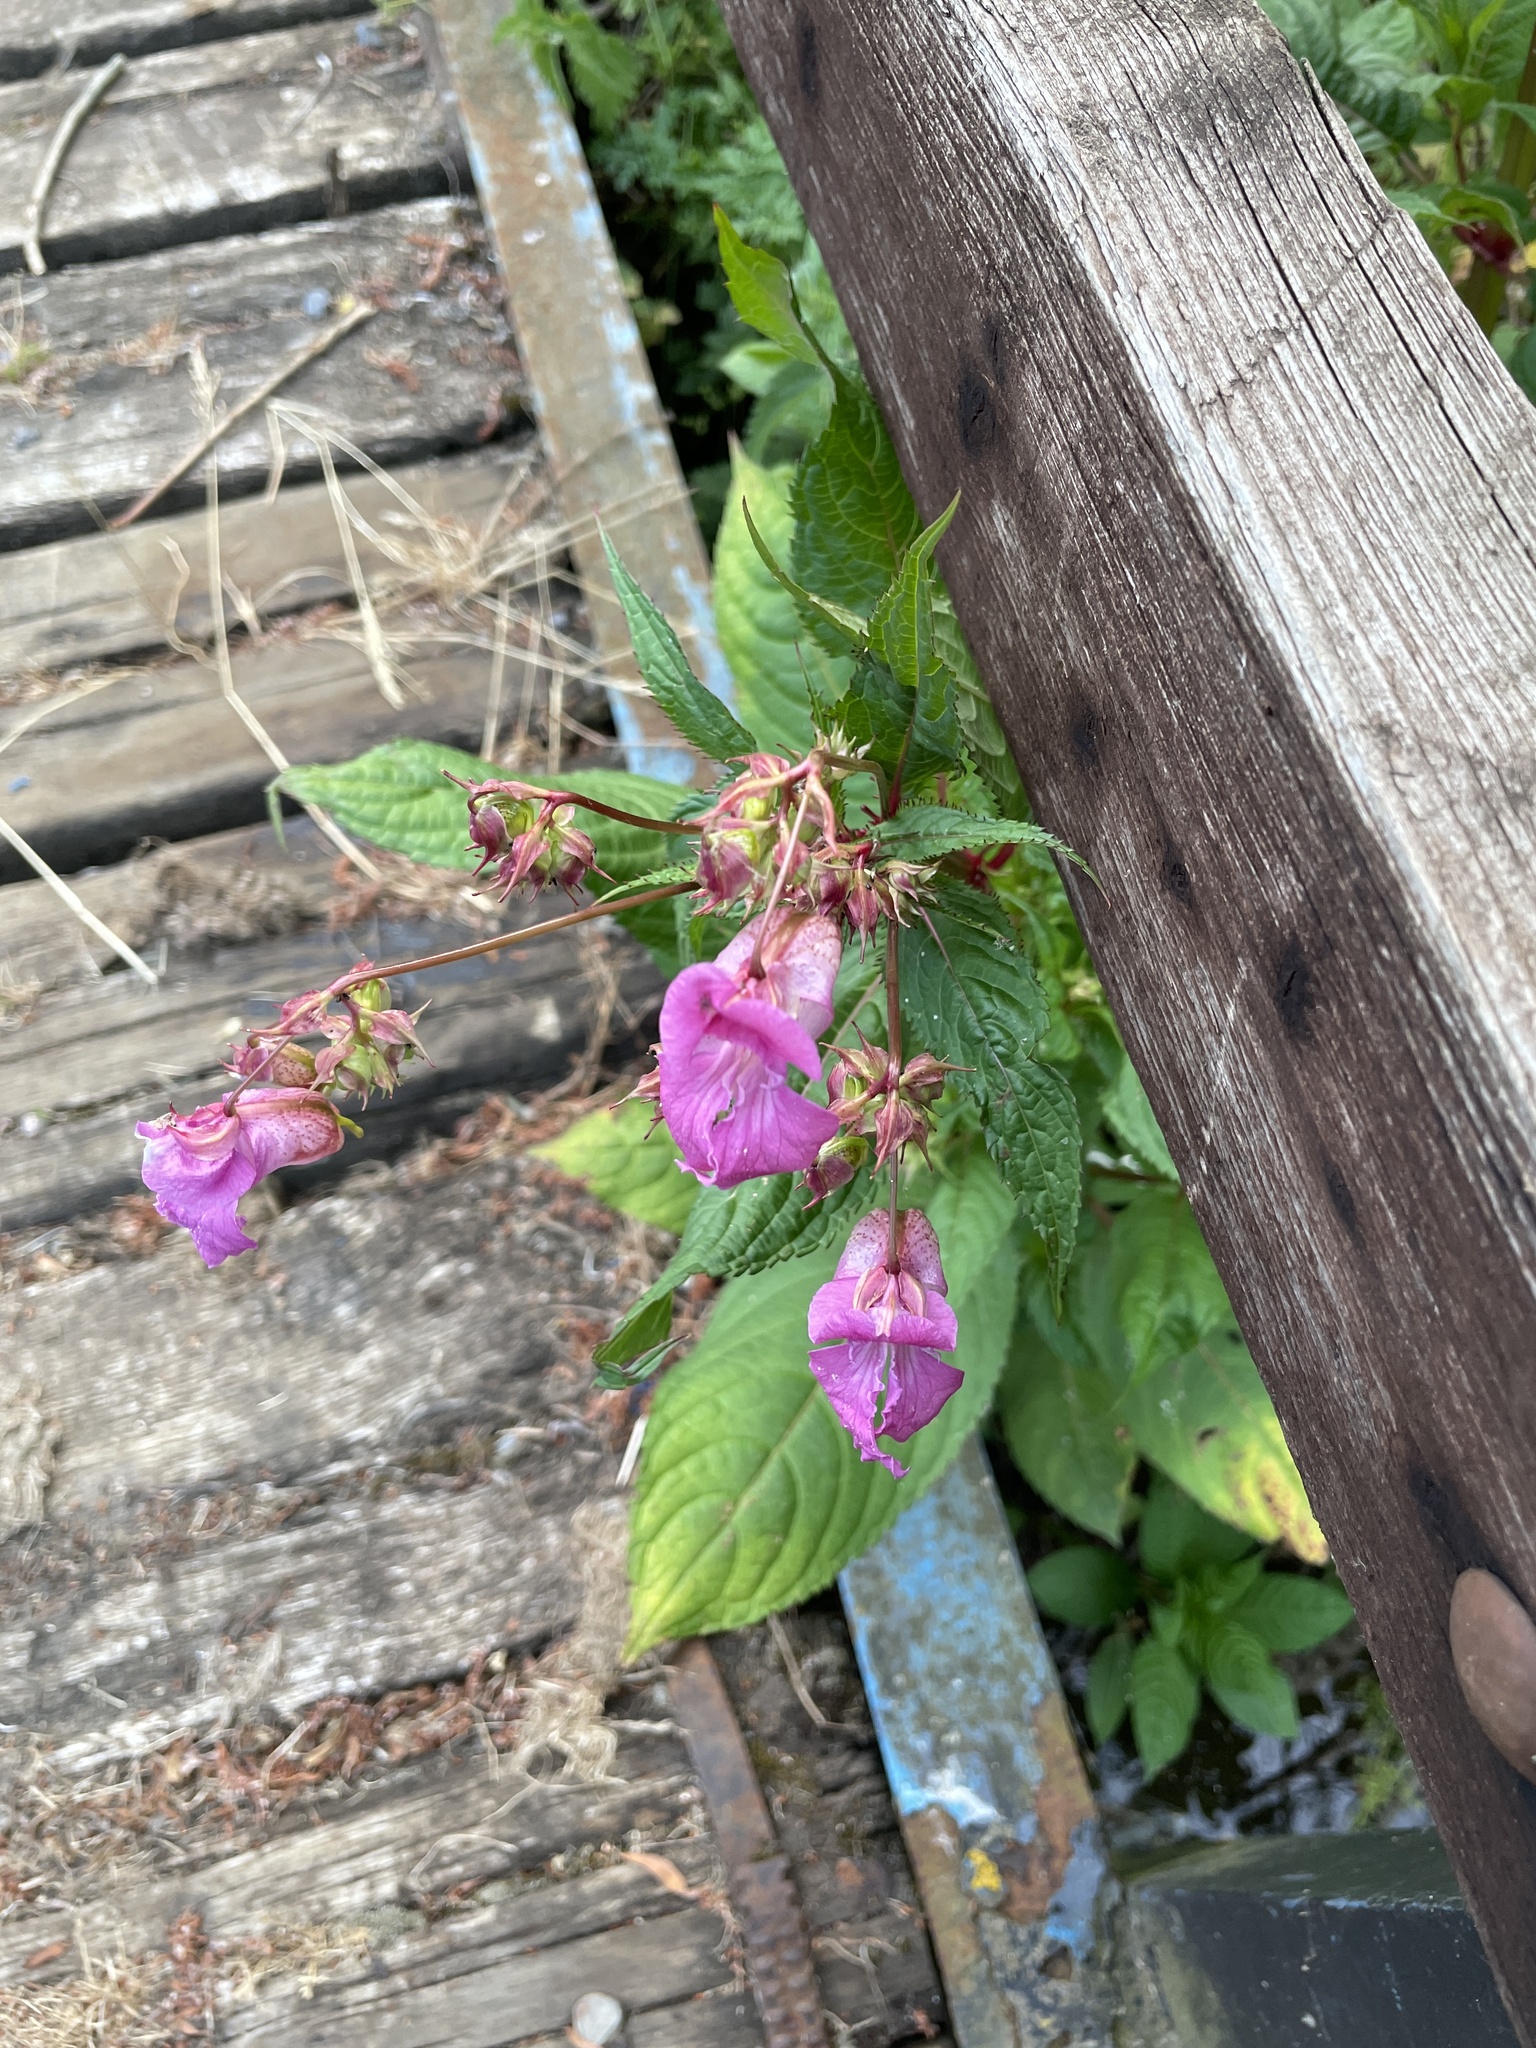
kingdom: Plantae
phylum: Tracheophyta
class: Magnoliopsida
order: Ericales
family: Balsaminaceae
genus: Impatiens
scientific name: Impatiens glandulifera
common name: Himalayan balsam
